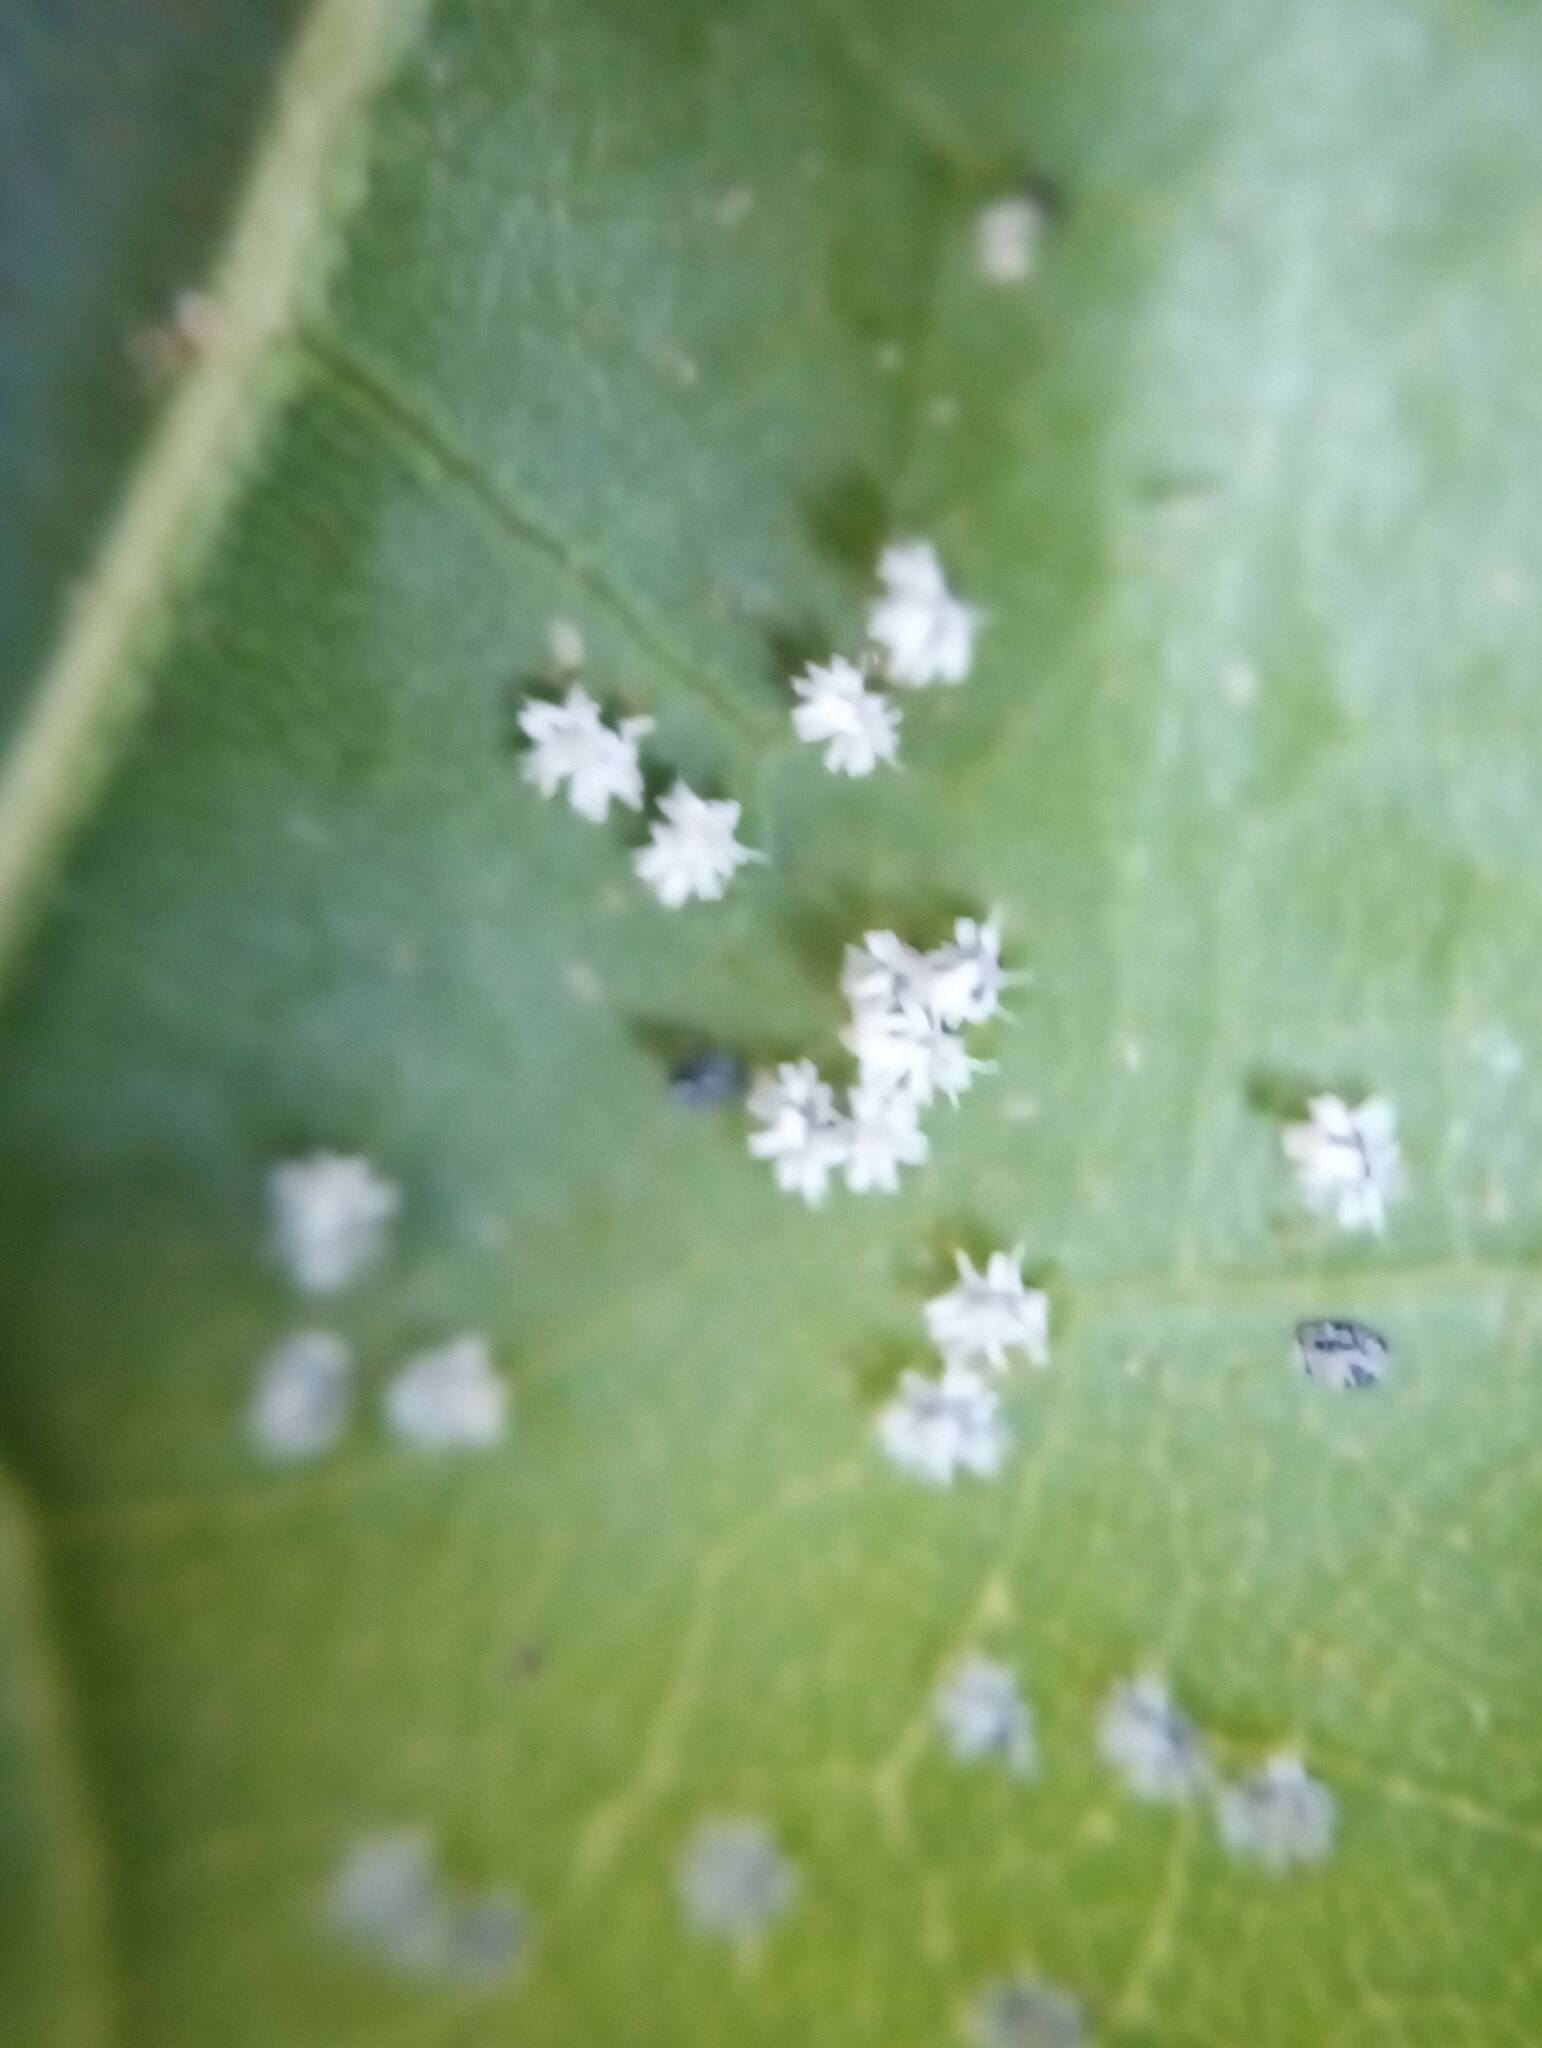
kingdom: Animalia
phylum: Arthropoda
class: Insecta
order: Hemiptera
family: Aleyrodidae
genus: Aleuroplatus
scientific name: Aleuroplatus coronata
